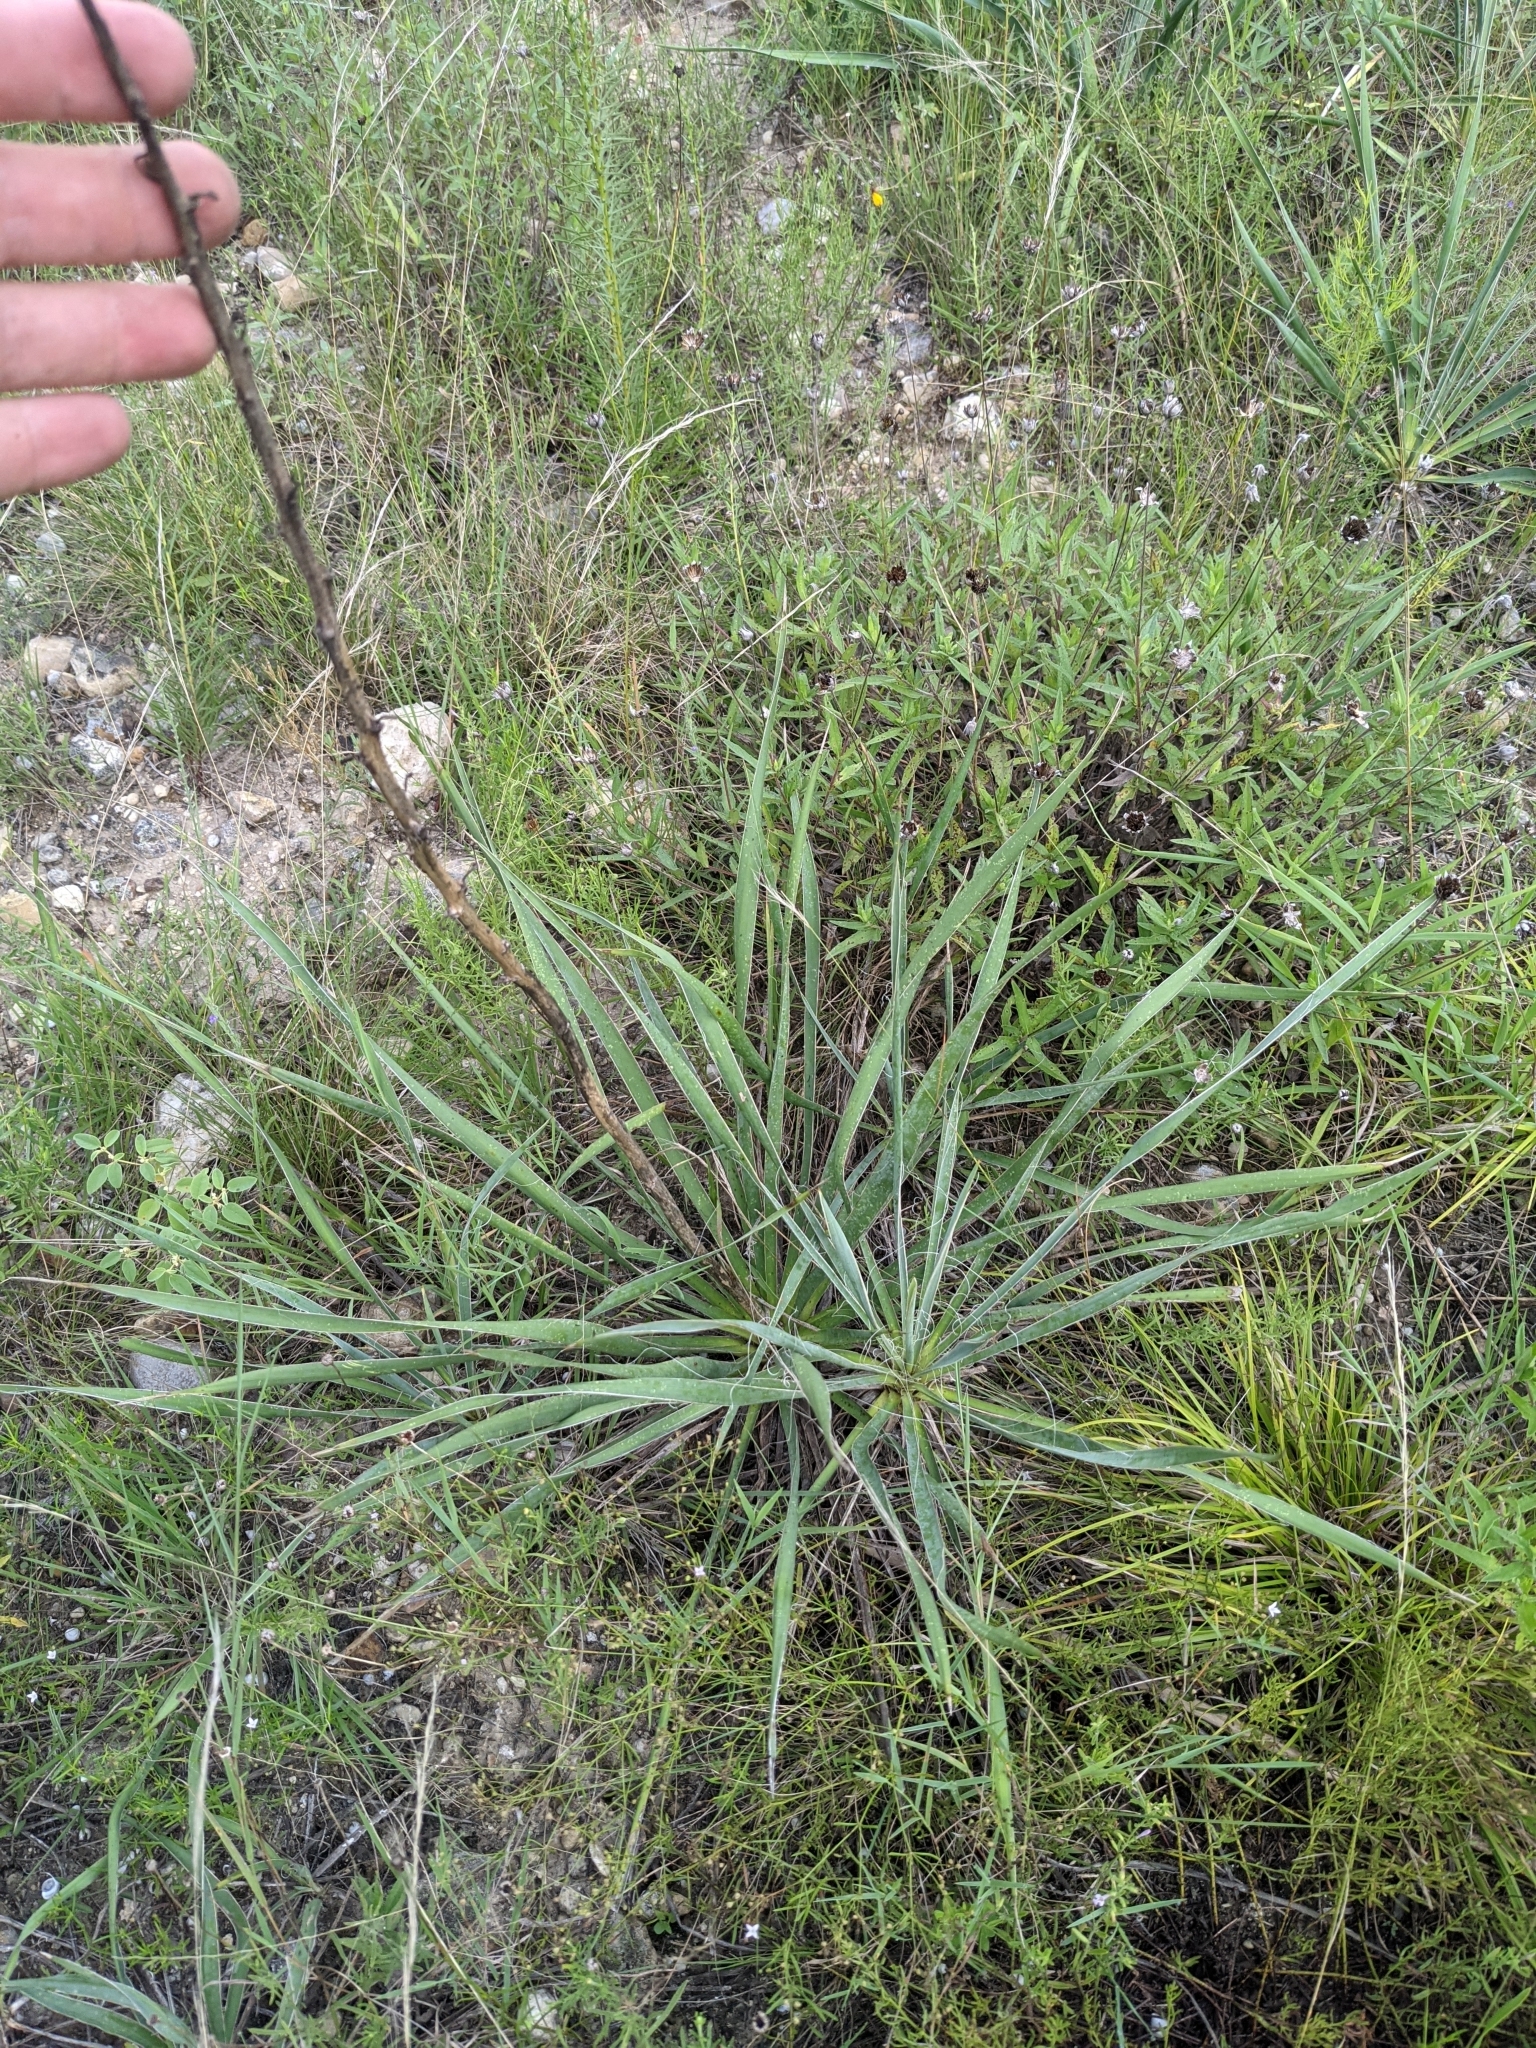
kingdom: Plantae
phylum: Tracheophyta
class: Liliopsida
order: Asparagales
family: Asparagaceae
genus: Yucca
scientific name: Yucca arkansana
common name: Arkansas yucca
